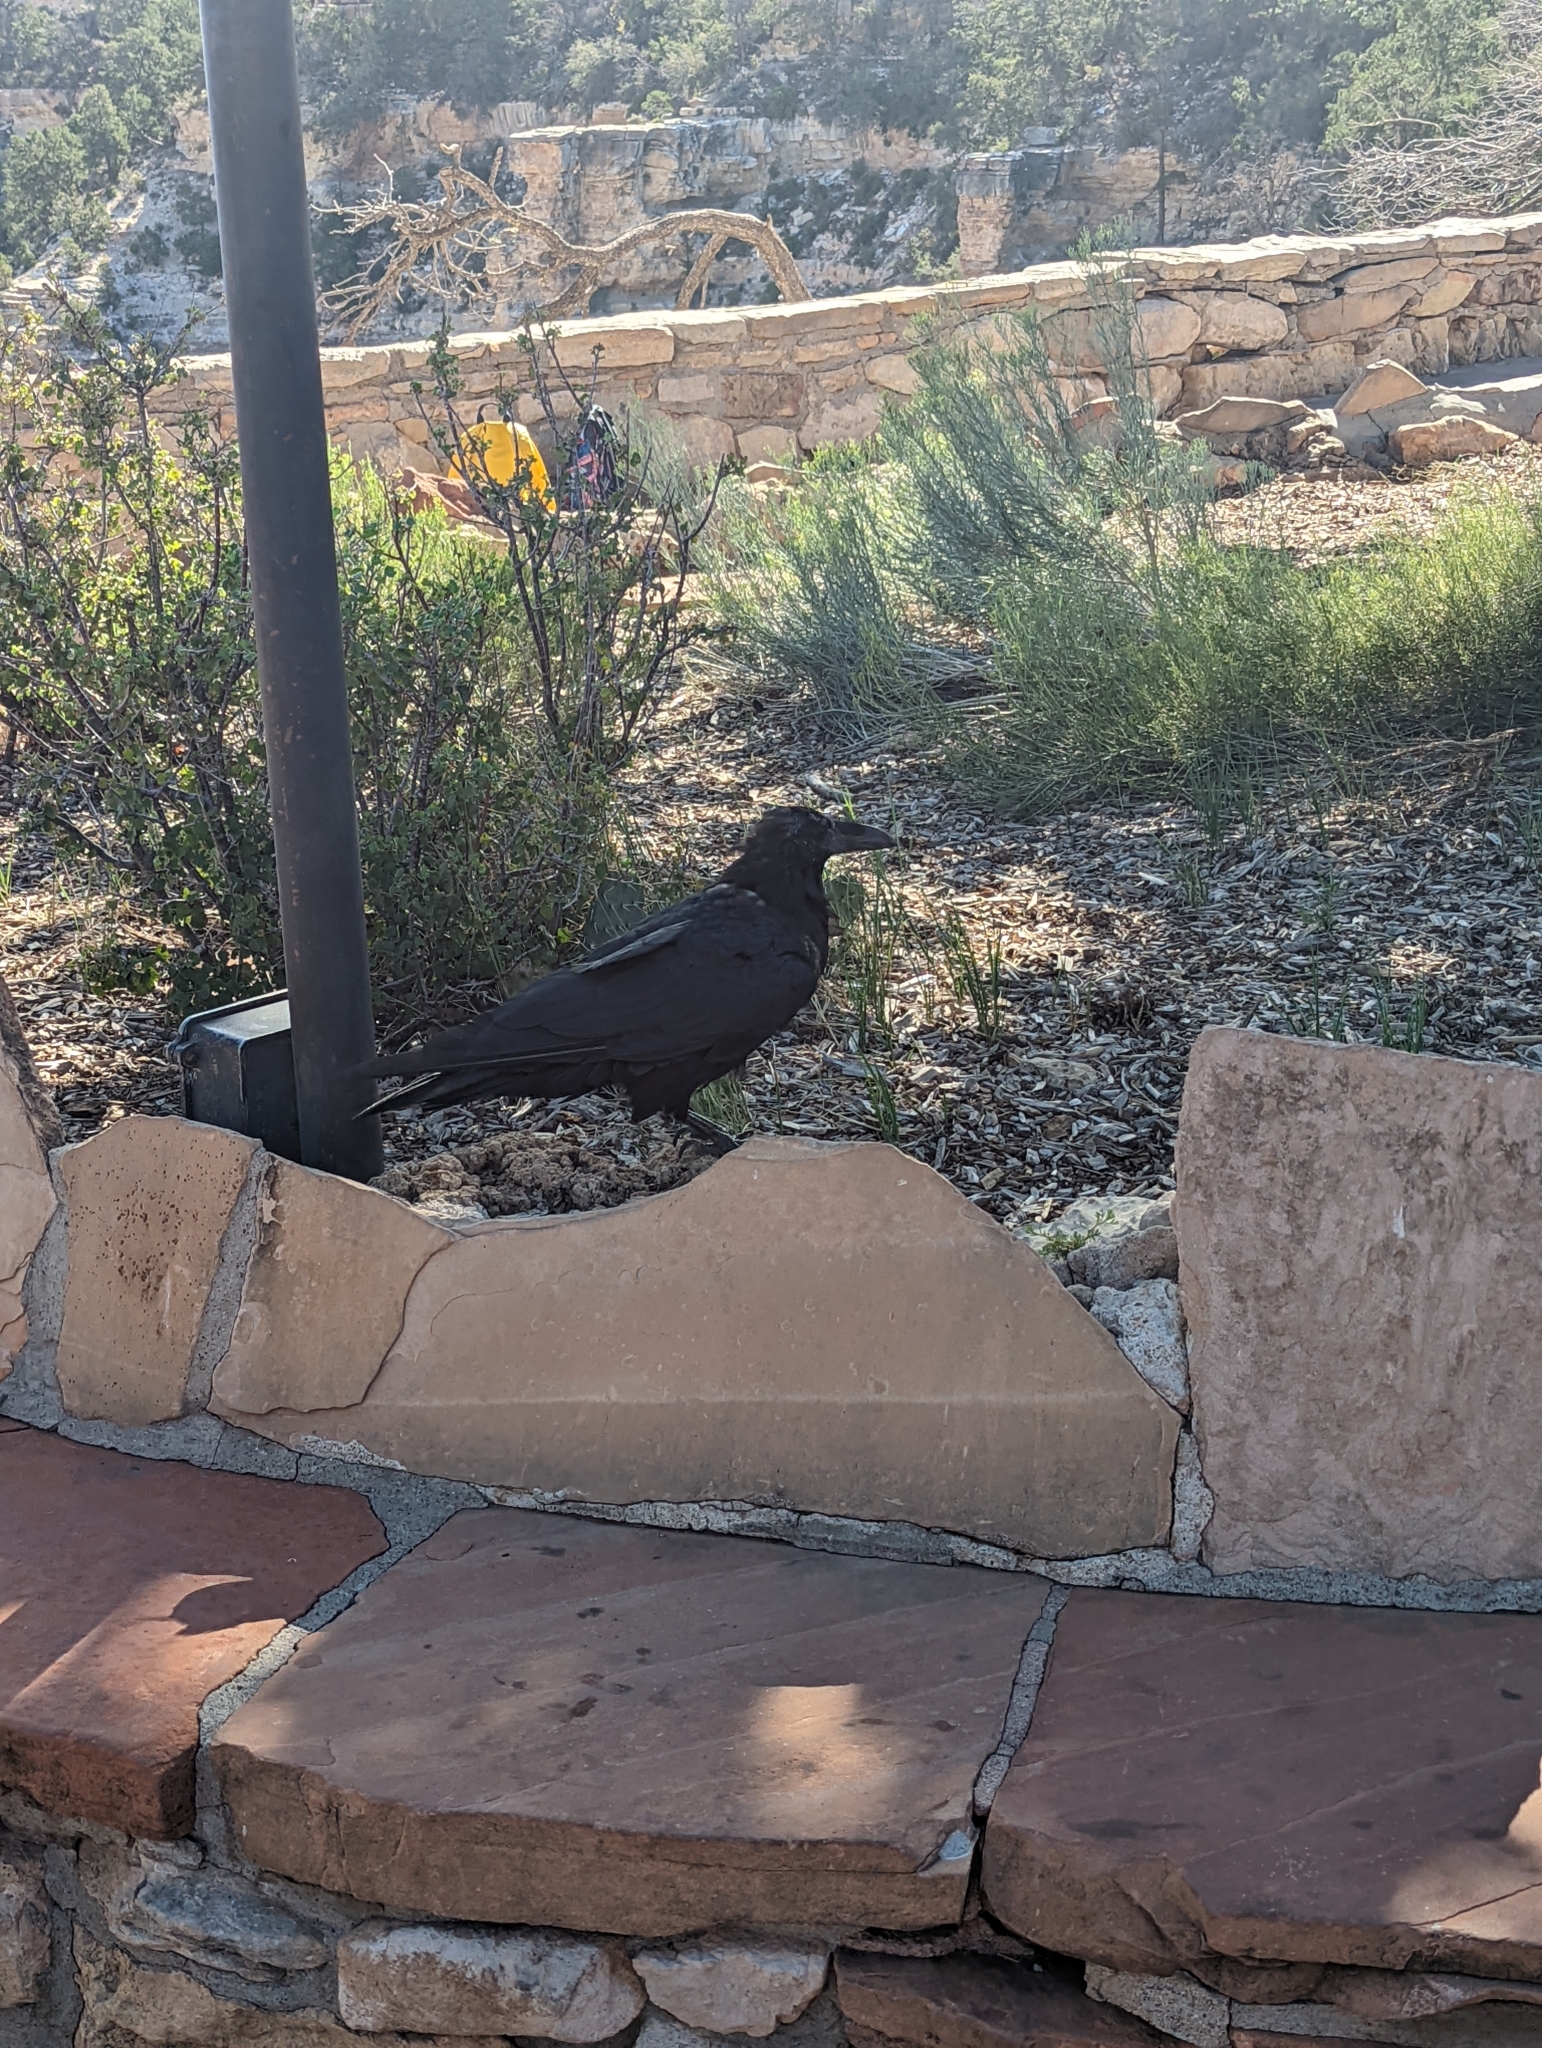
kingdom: Animalia
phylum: Chordata
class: Aves
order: Passeriformes
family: Corvidae
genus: Corvus
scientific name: Corvus corax
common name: Common raven
